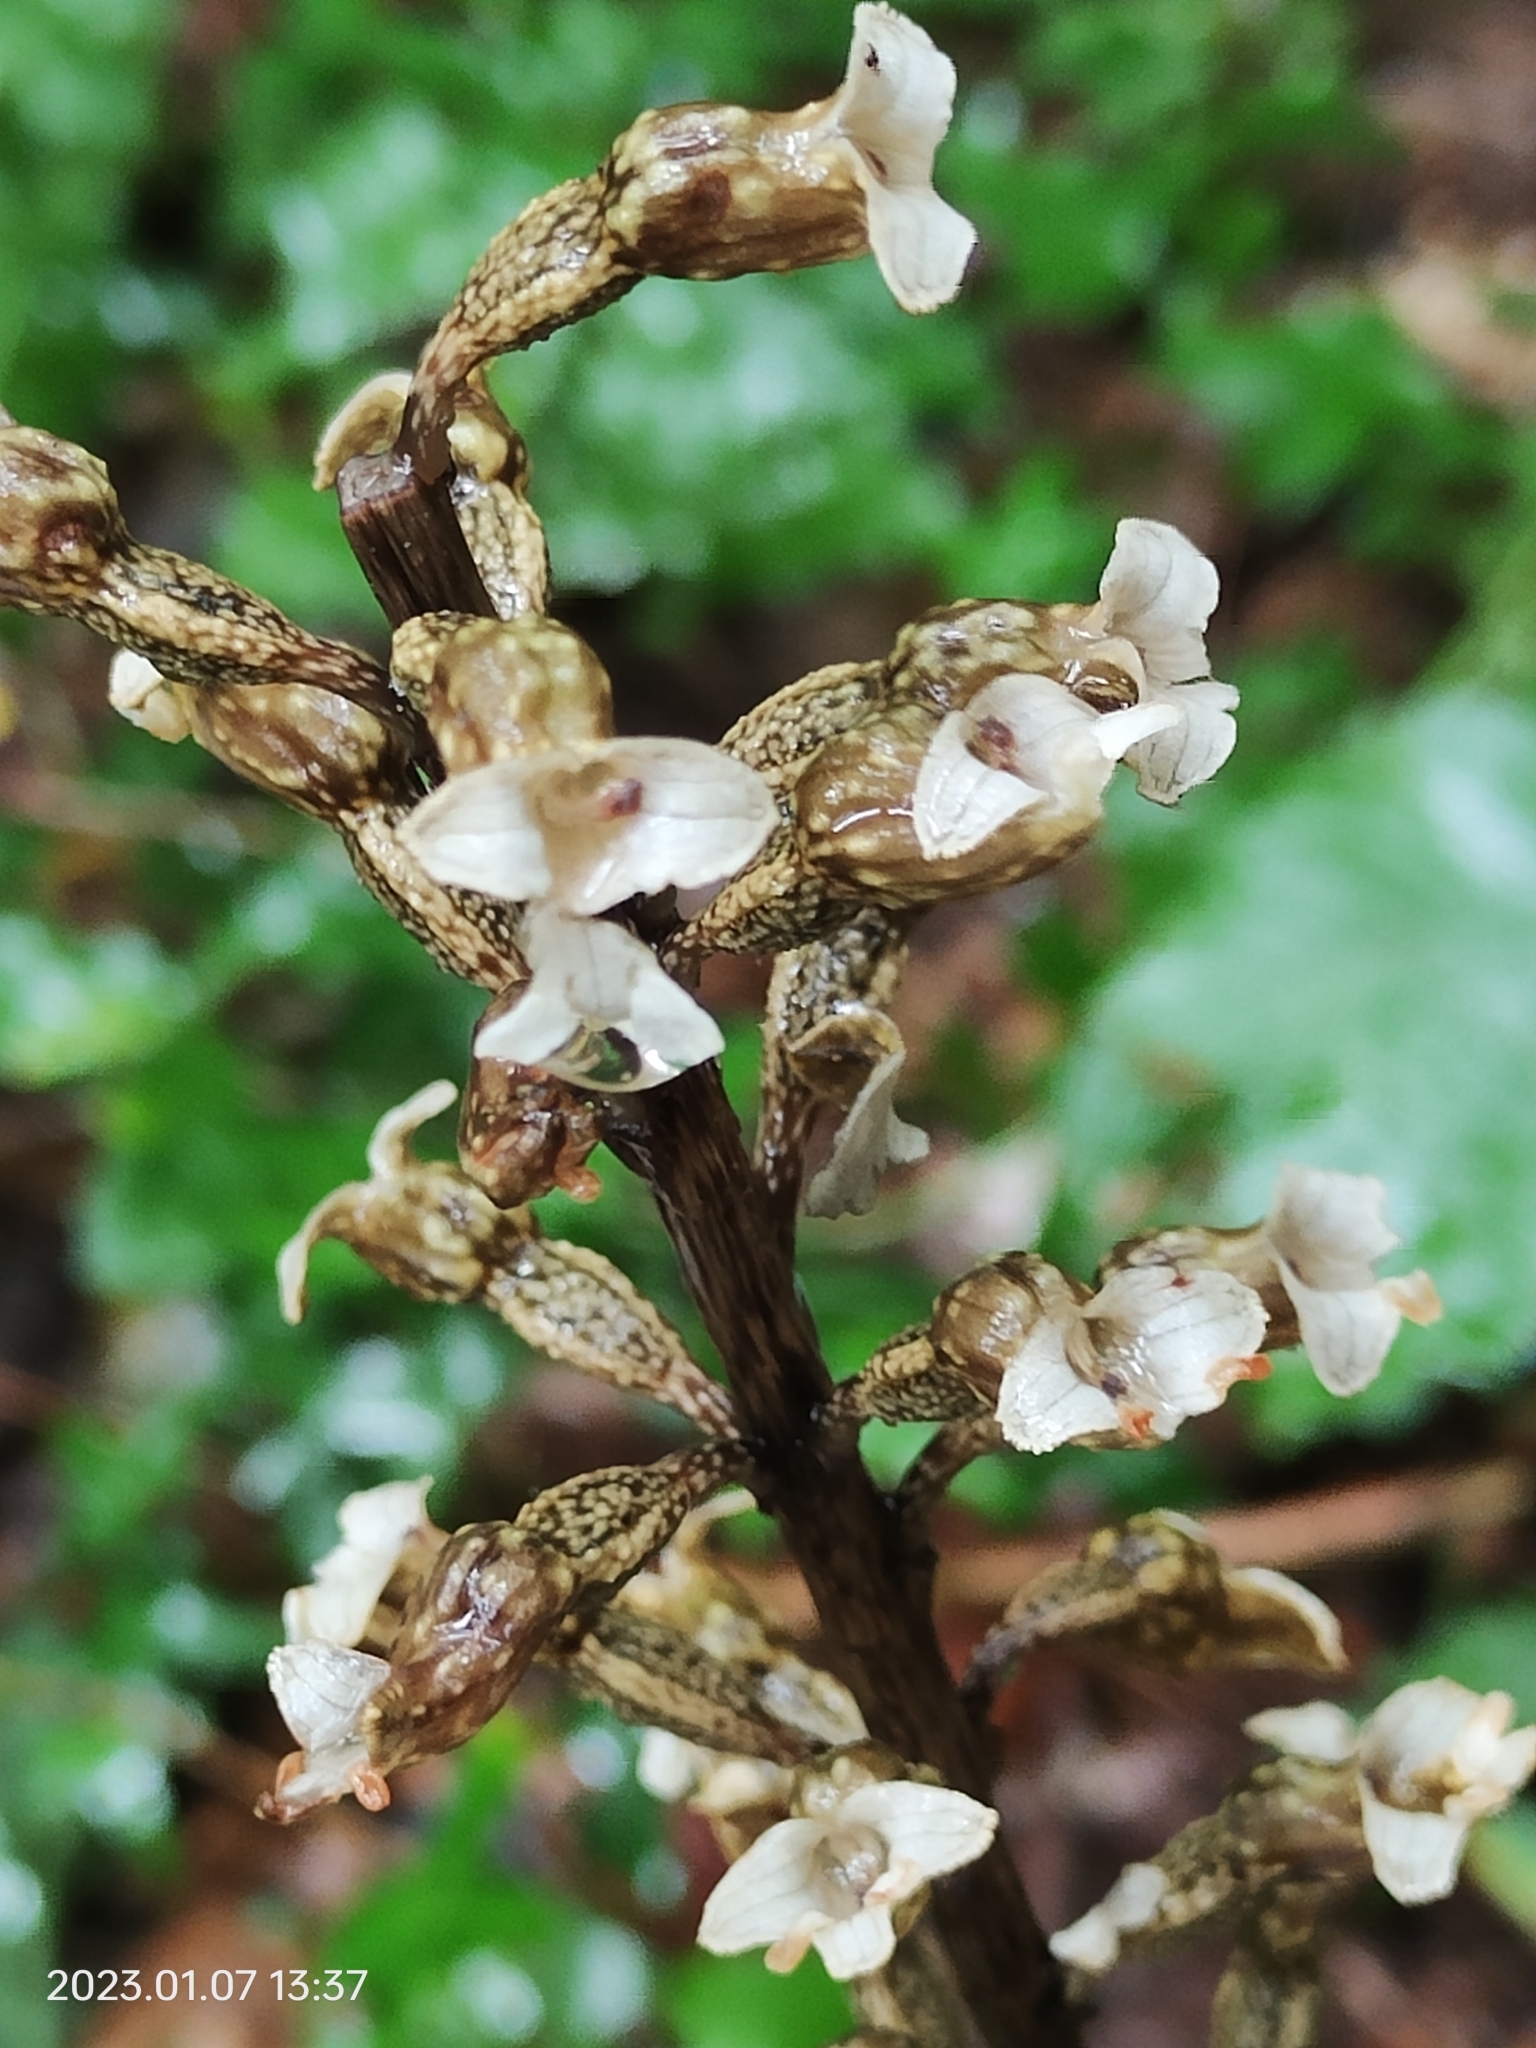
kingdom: Plantae
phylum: Tracheophyta
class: Liliopsida
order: Asparagales
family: Orchidaceae
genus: Gastrodia
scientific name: Gastrodia cunninghamii
